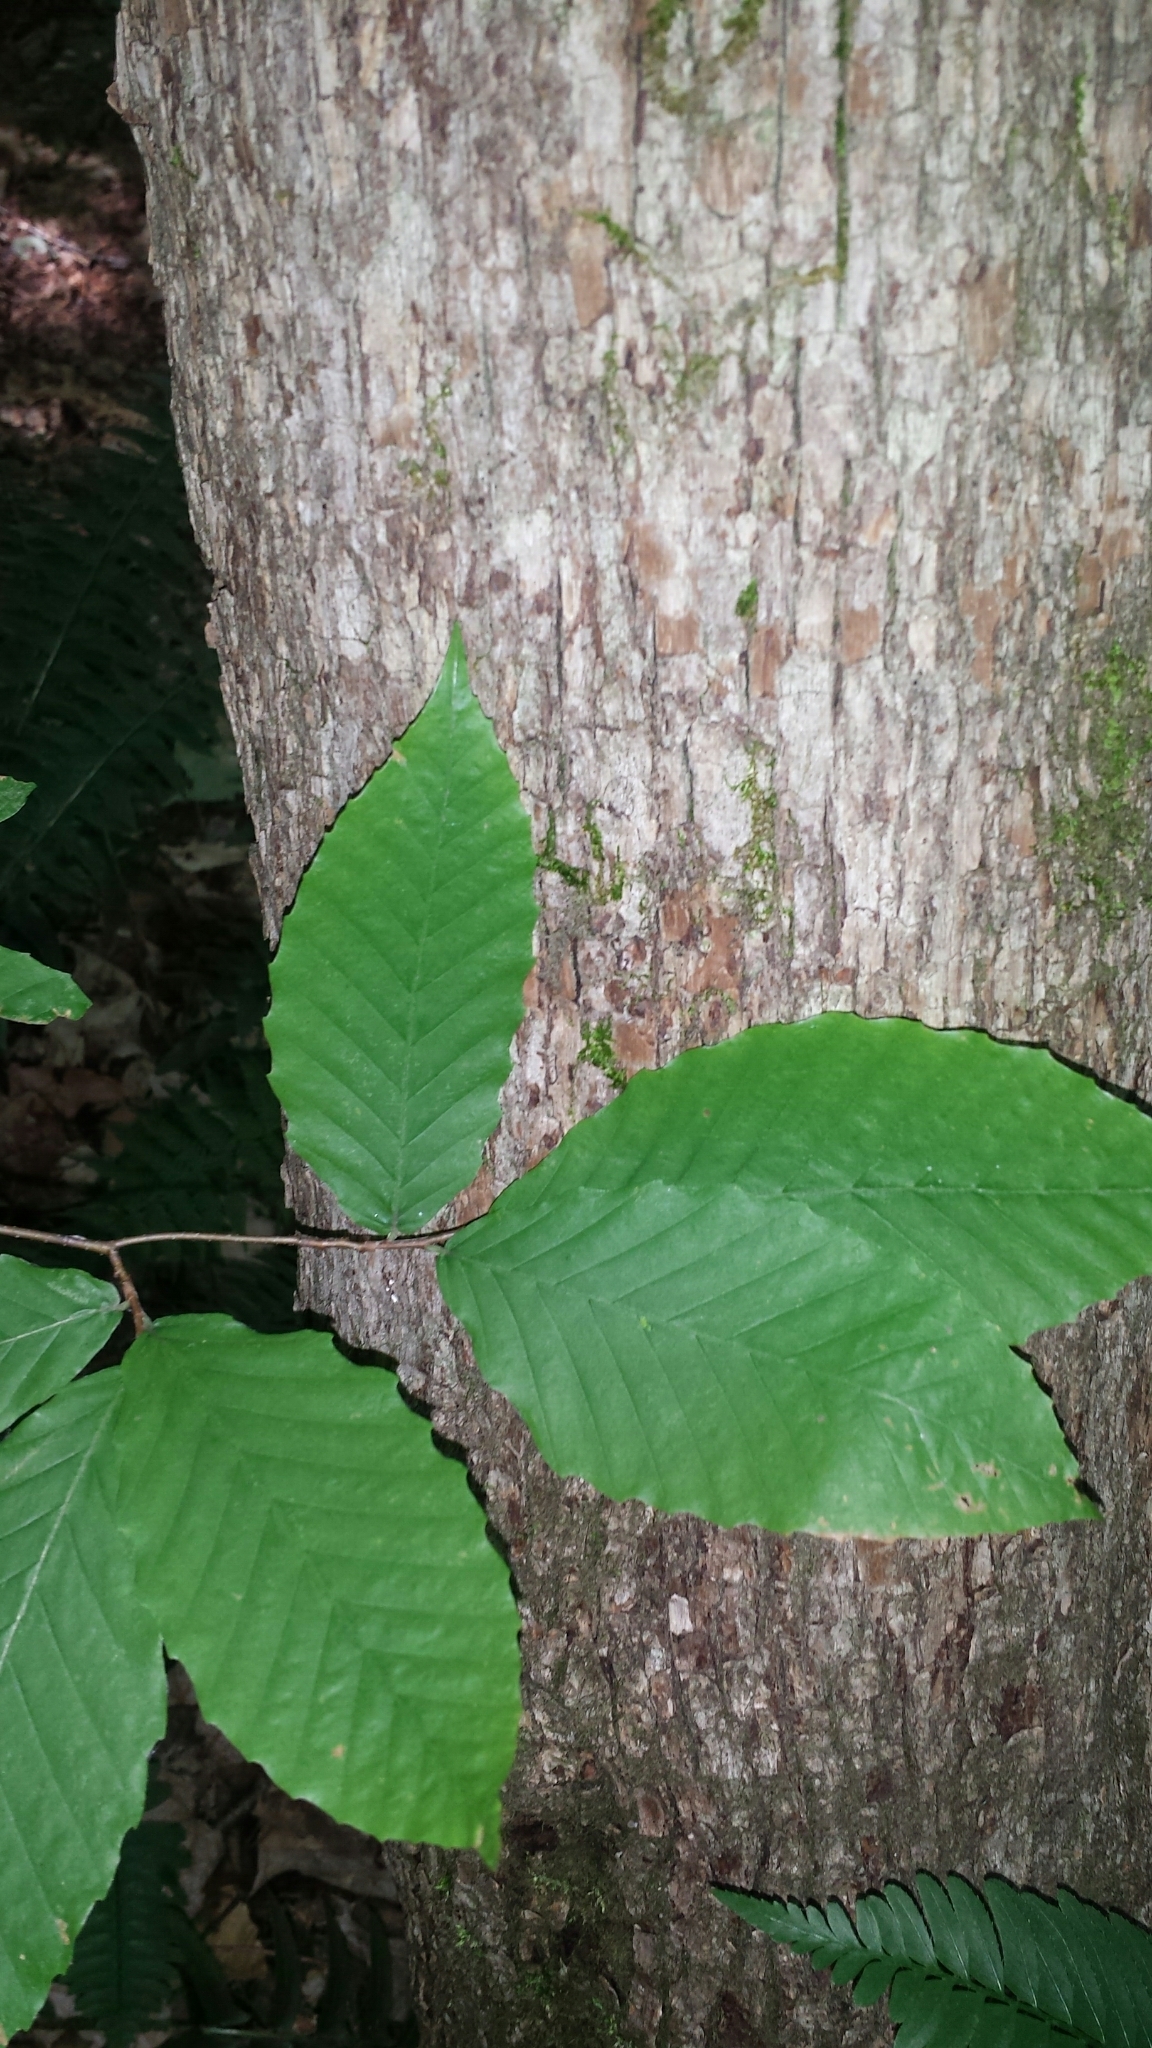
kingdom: Plantae
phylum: Tracheophyta
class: Magnoliopsida
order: Fagales
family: Betulaceae
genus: Ostrya
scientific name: Ostrya virginiana
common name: Ironwood
